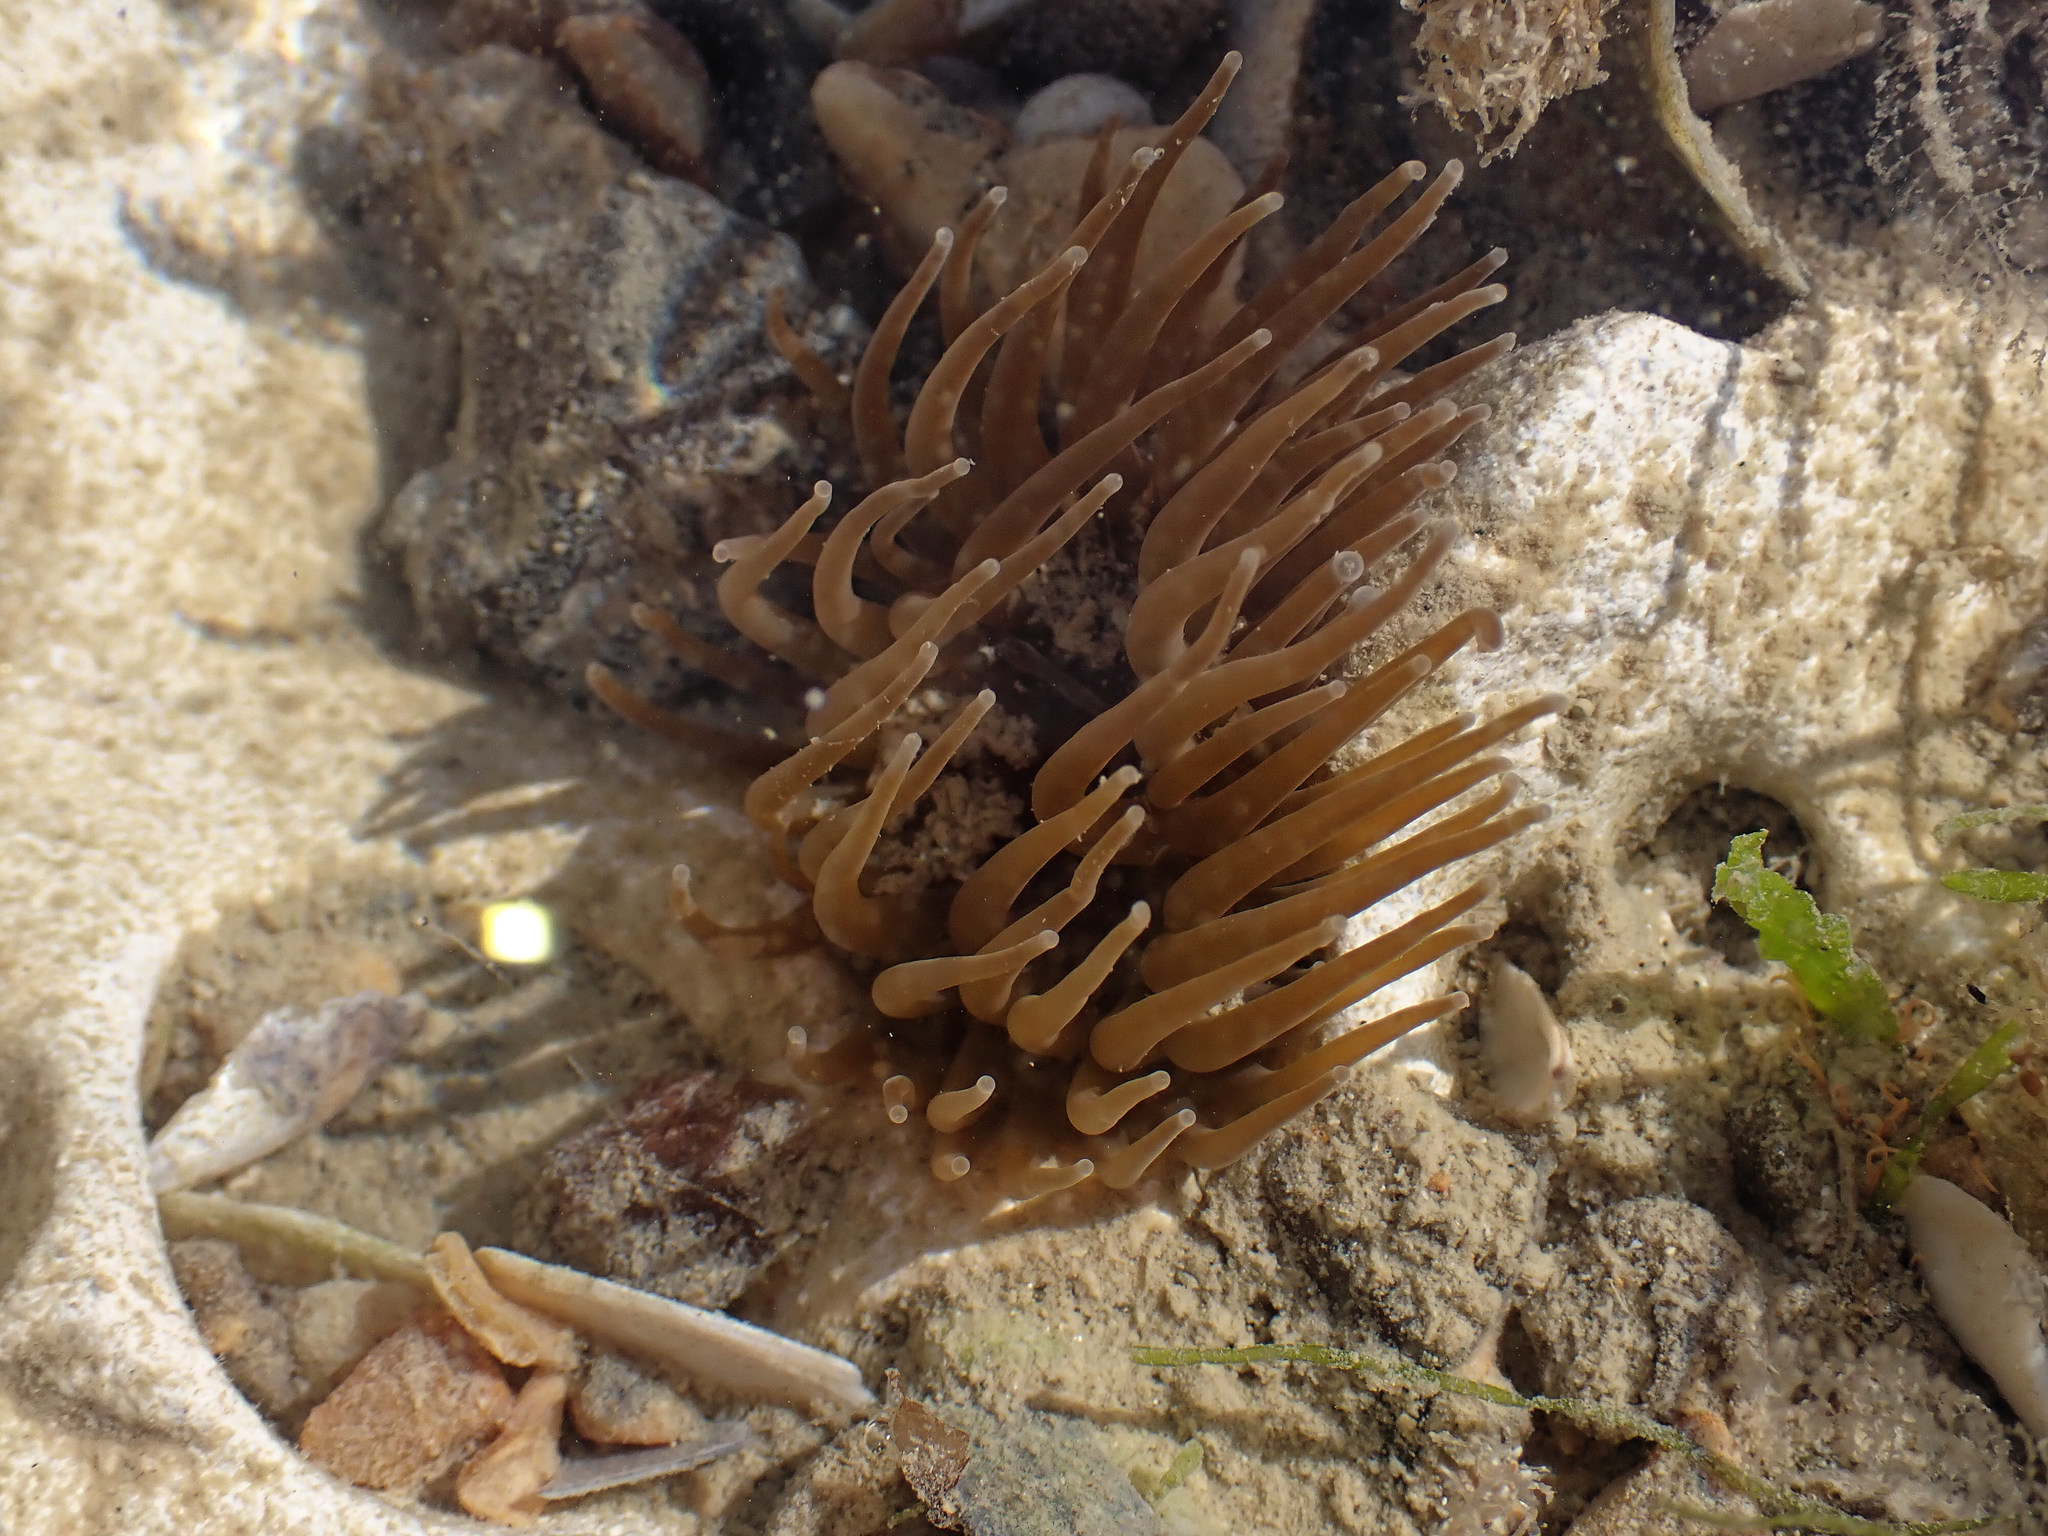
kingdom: Animalia
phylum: Cnidaria
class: Anthozoa
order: Actiniaria
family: Actiniidae
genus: Anemonia
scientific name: Anemonia viridis
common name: Snakelocks anemone
